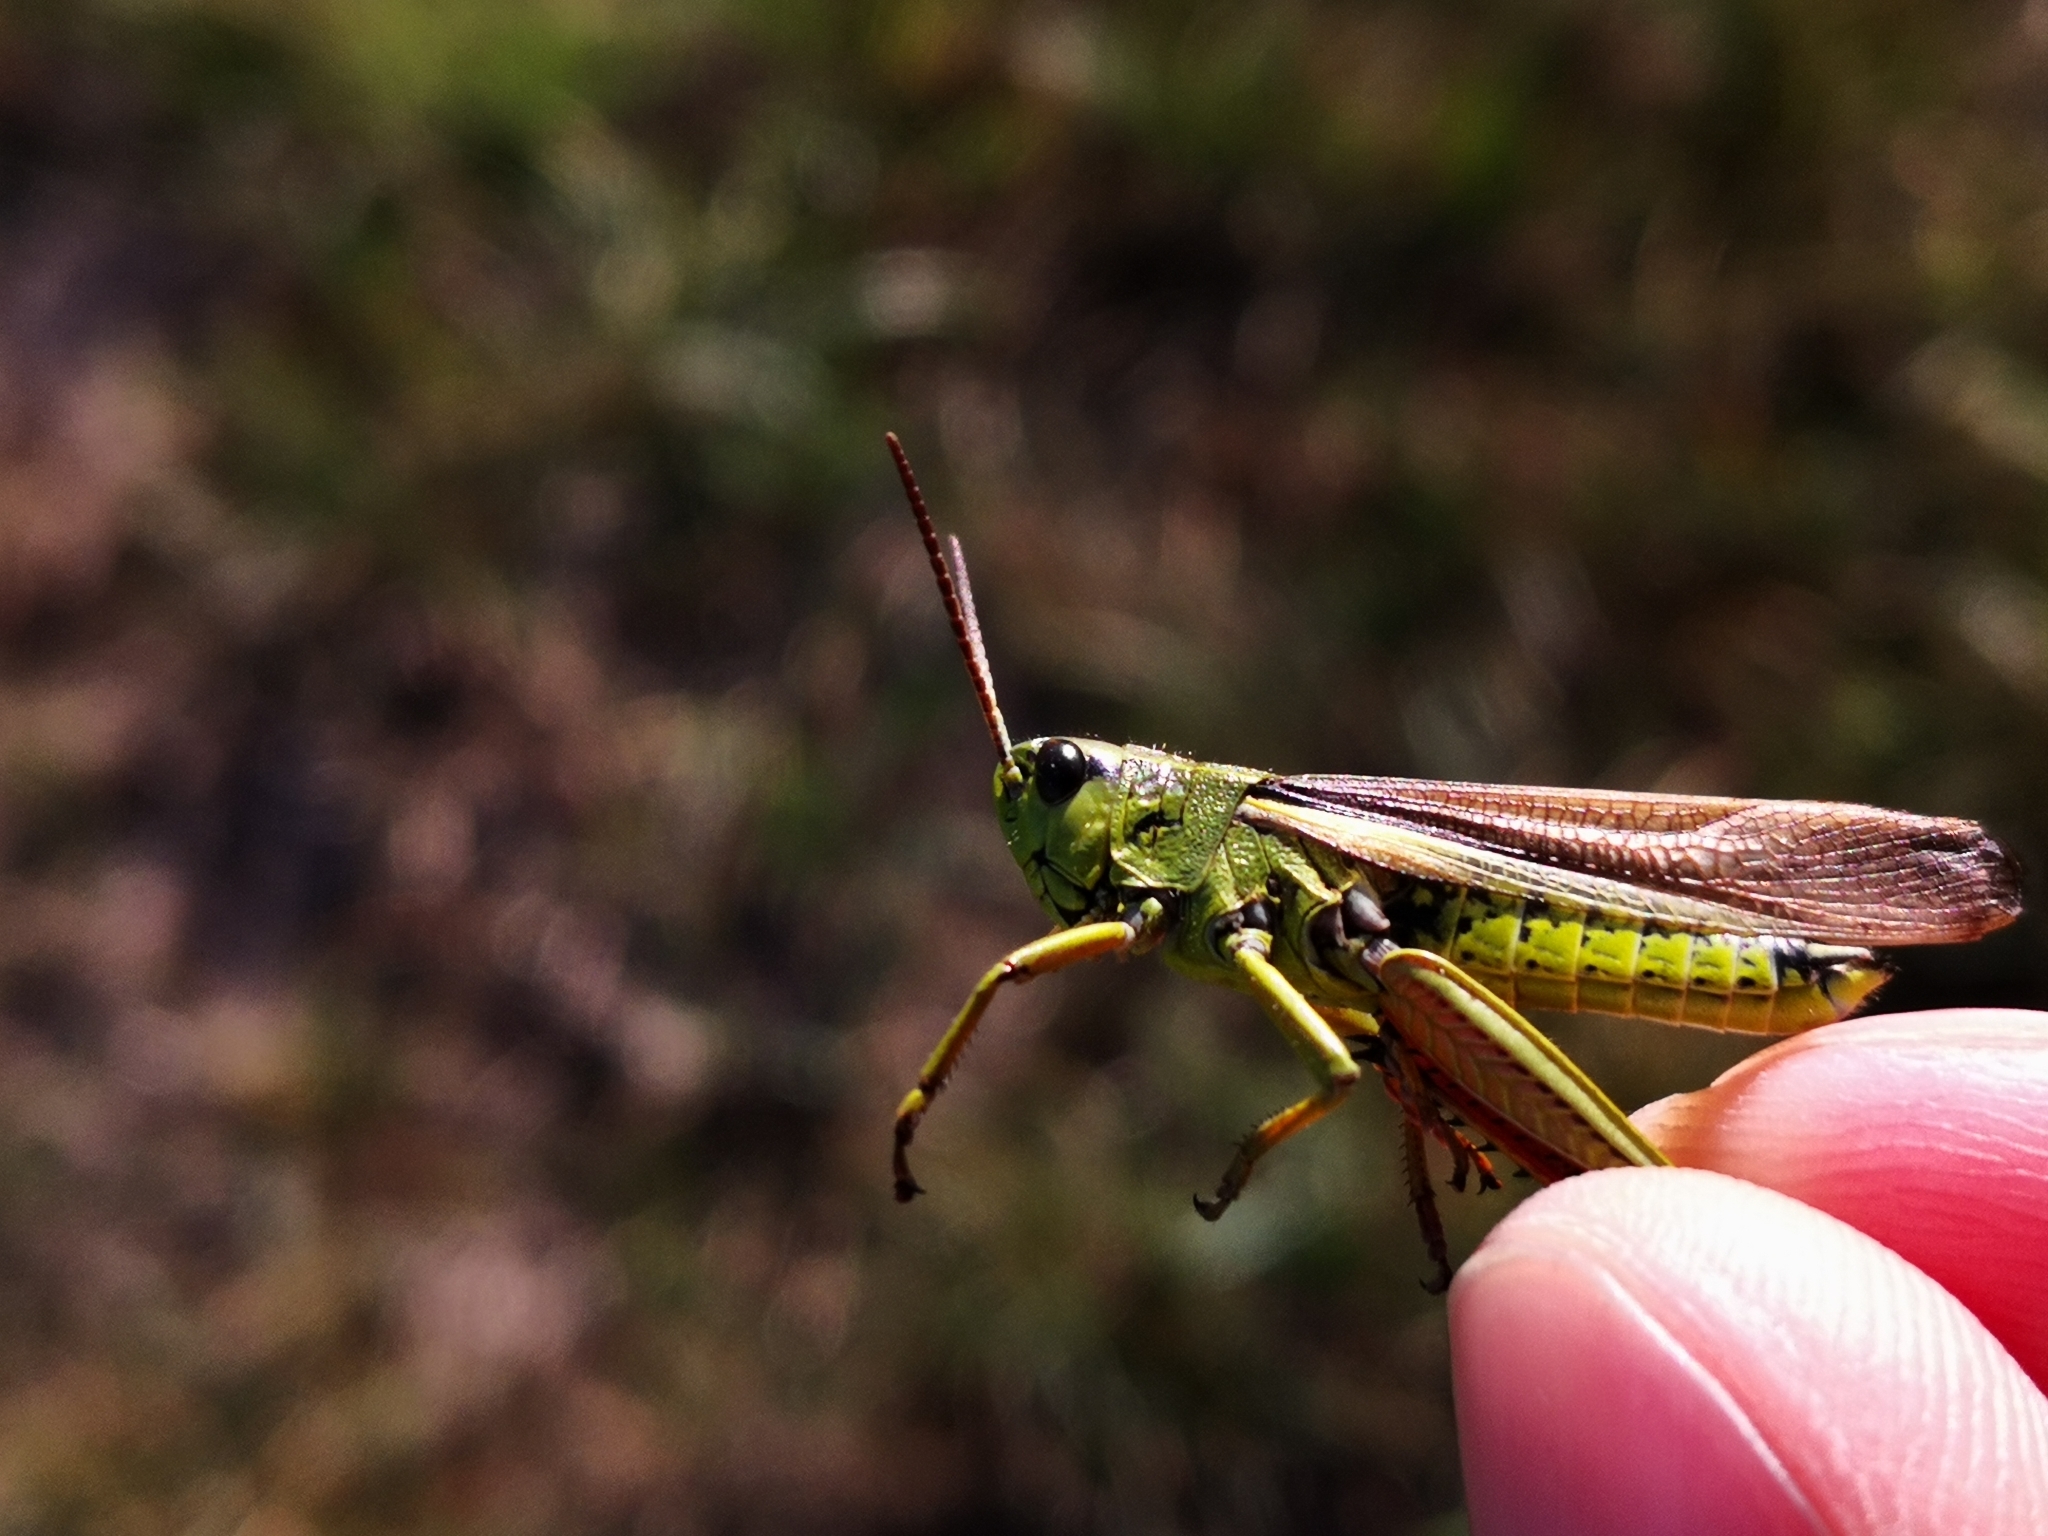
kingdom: Animalia
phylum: Arthropoda
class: Insecta
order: Orthoptera
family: Acrididae
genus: Stethophyma
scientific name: Stethophyma grossum
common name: Large marsh grasshopper
